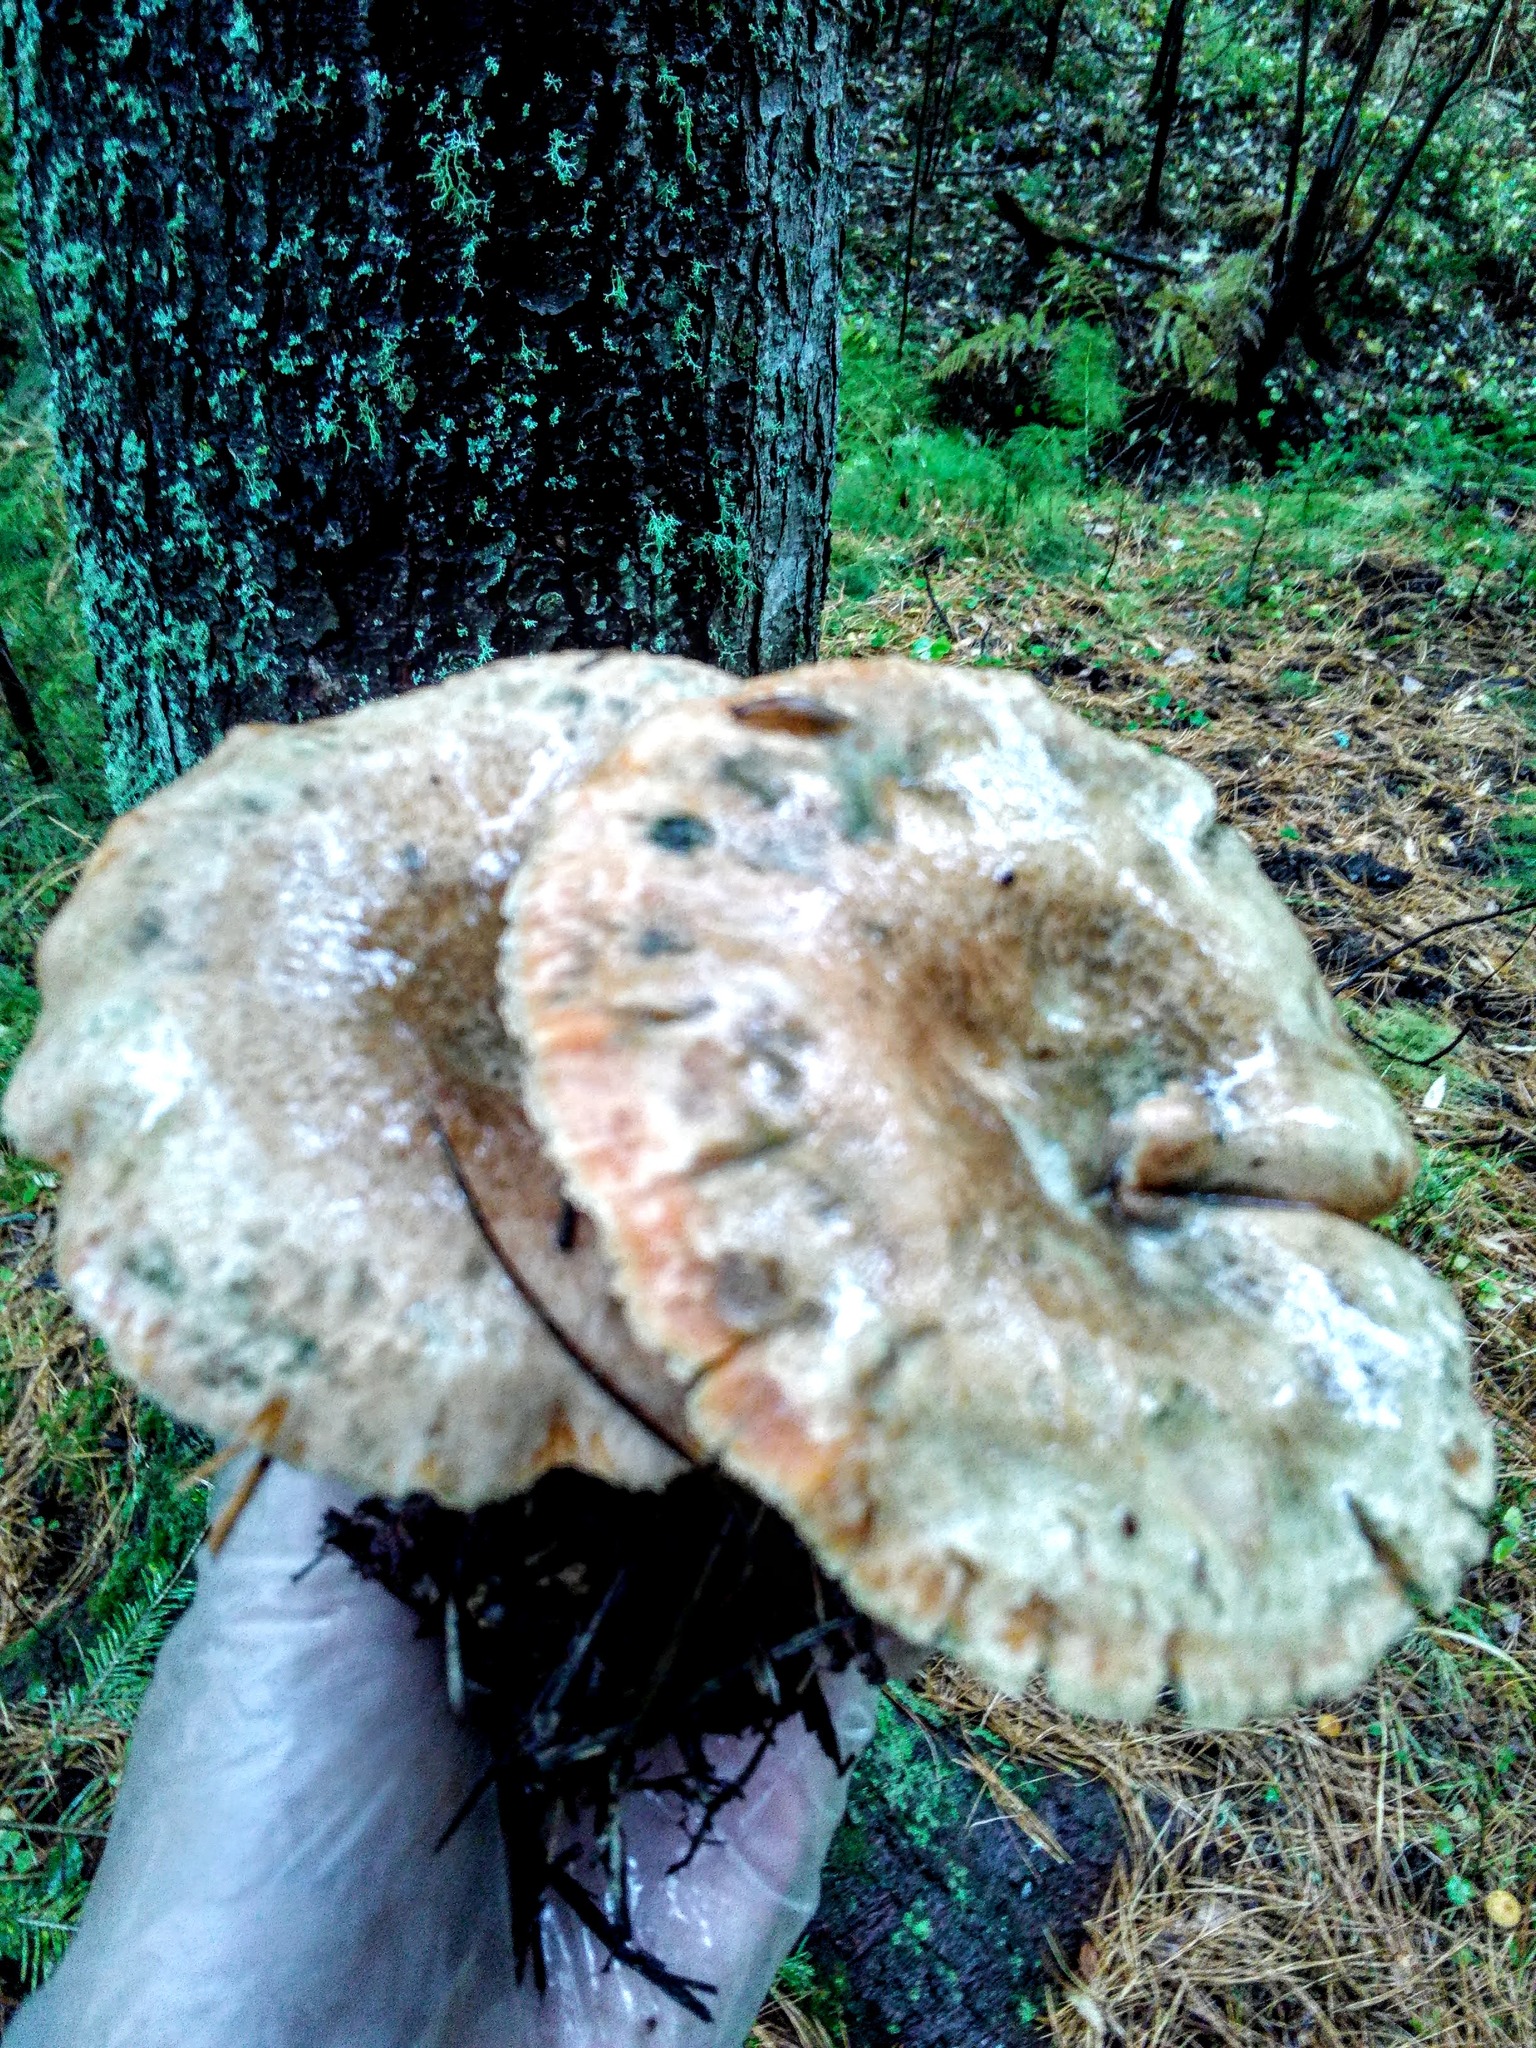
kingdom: Fungi
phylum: Basidiomycota
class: Agaricomycetes
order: Russulales
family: Russulaceae
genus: Lactarius
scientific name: Lactarius deterrimus
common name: False saffron milkcap
